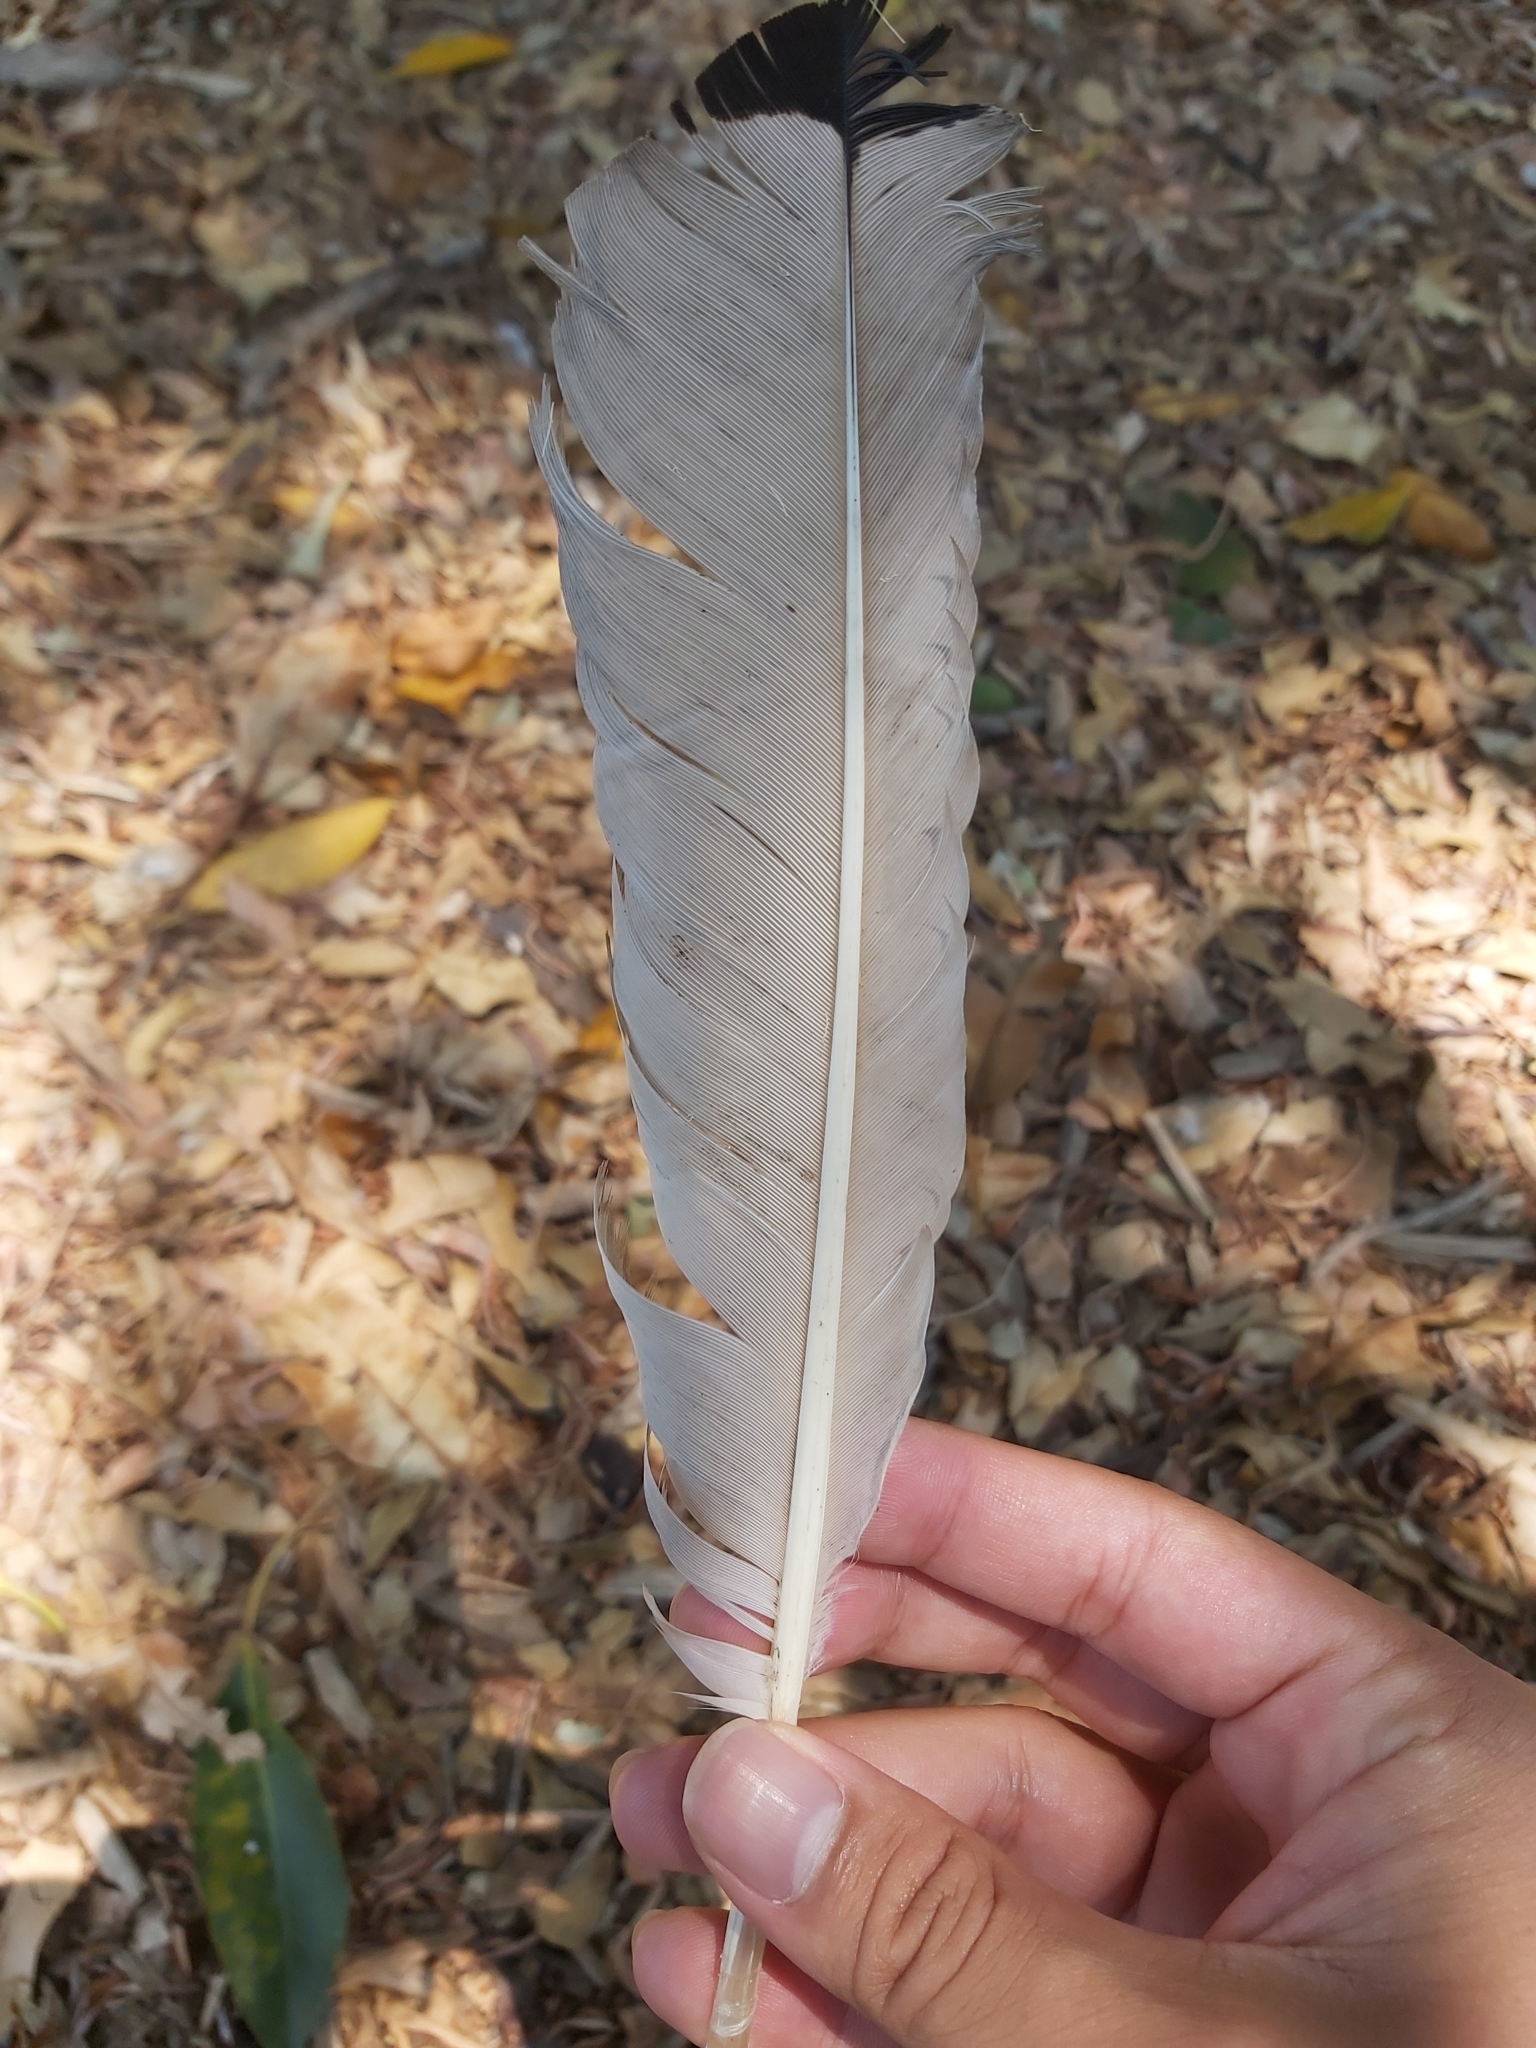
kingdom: Animalia
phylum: Chordata
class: Aves
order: Pelecaniformes
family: Threskiornithidae
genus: Threskiornis
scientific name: Threskiornis molucca
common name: Australian white ibis
